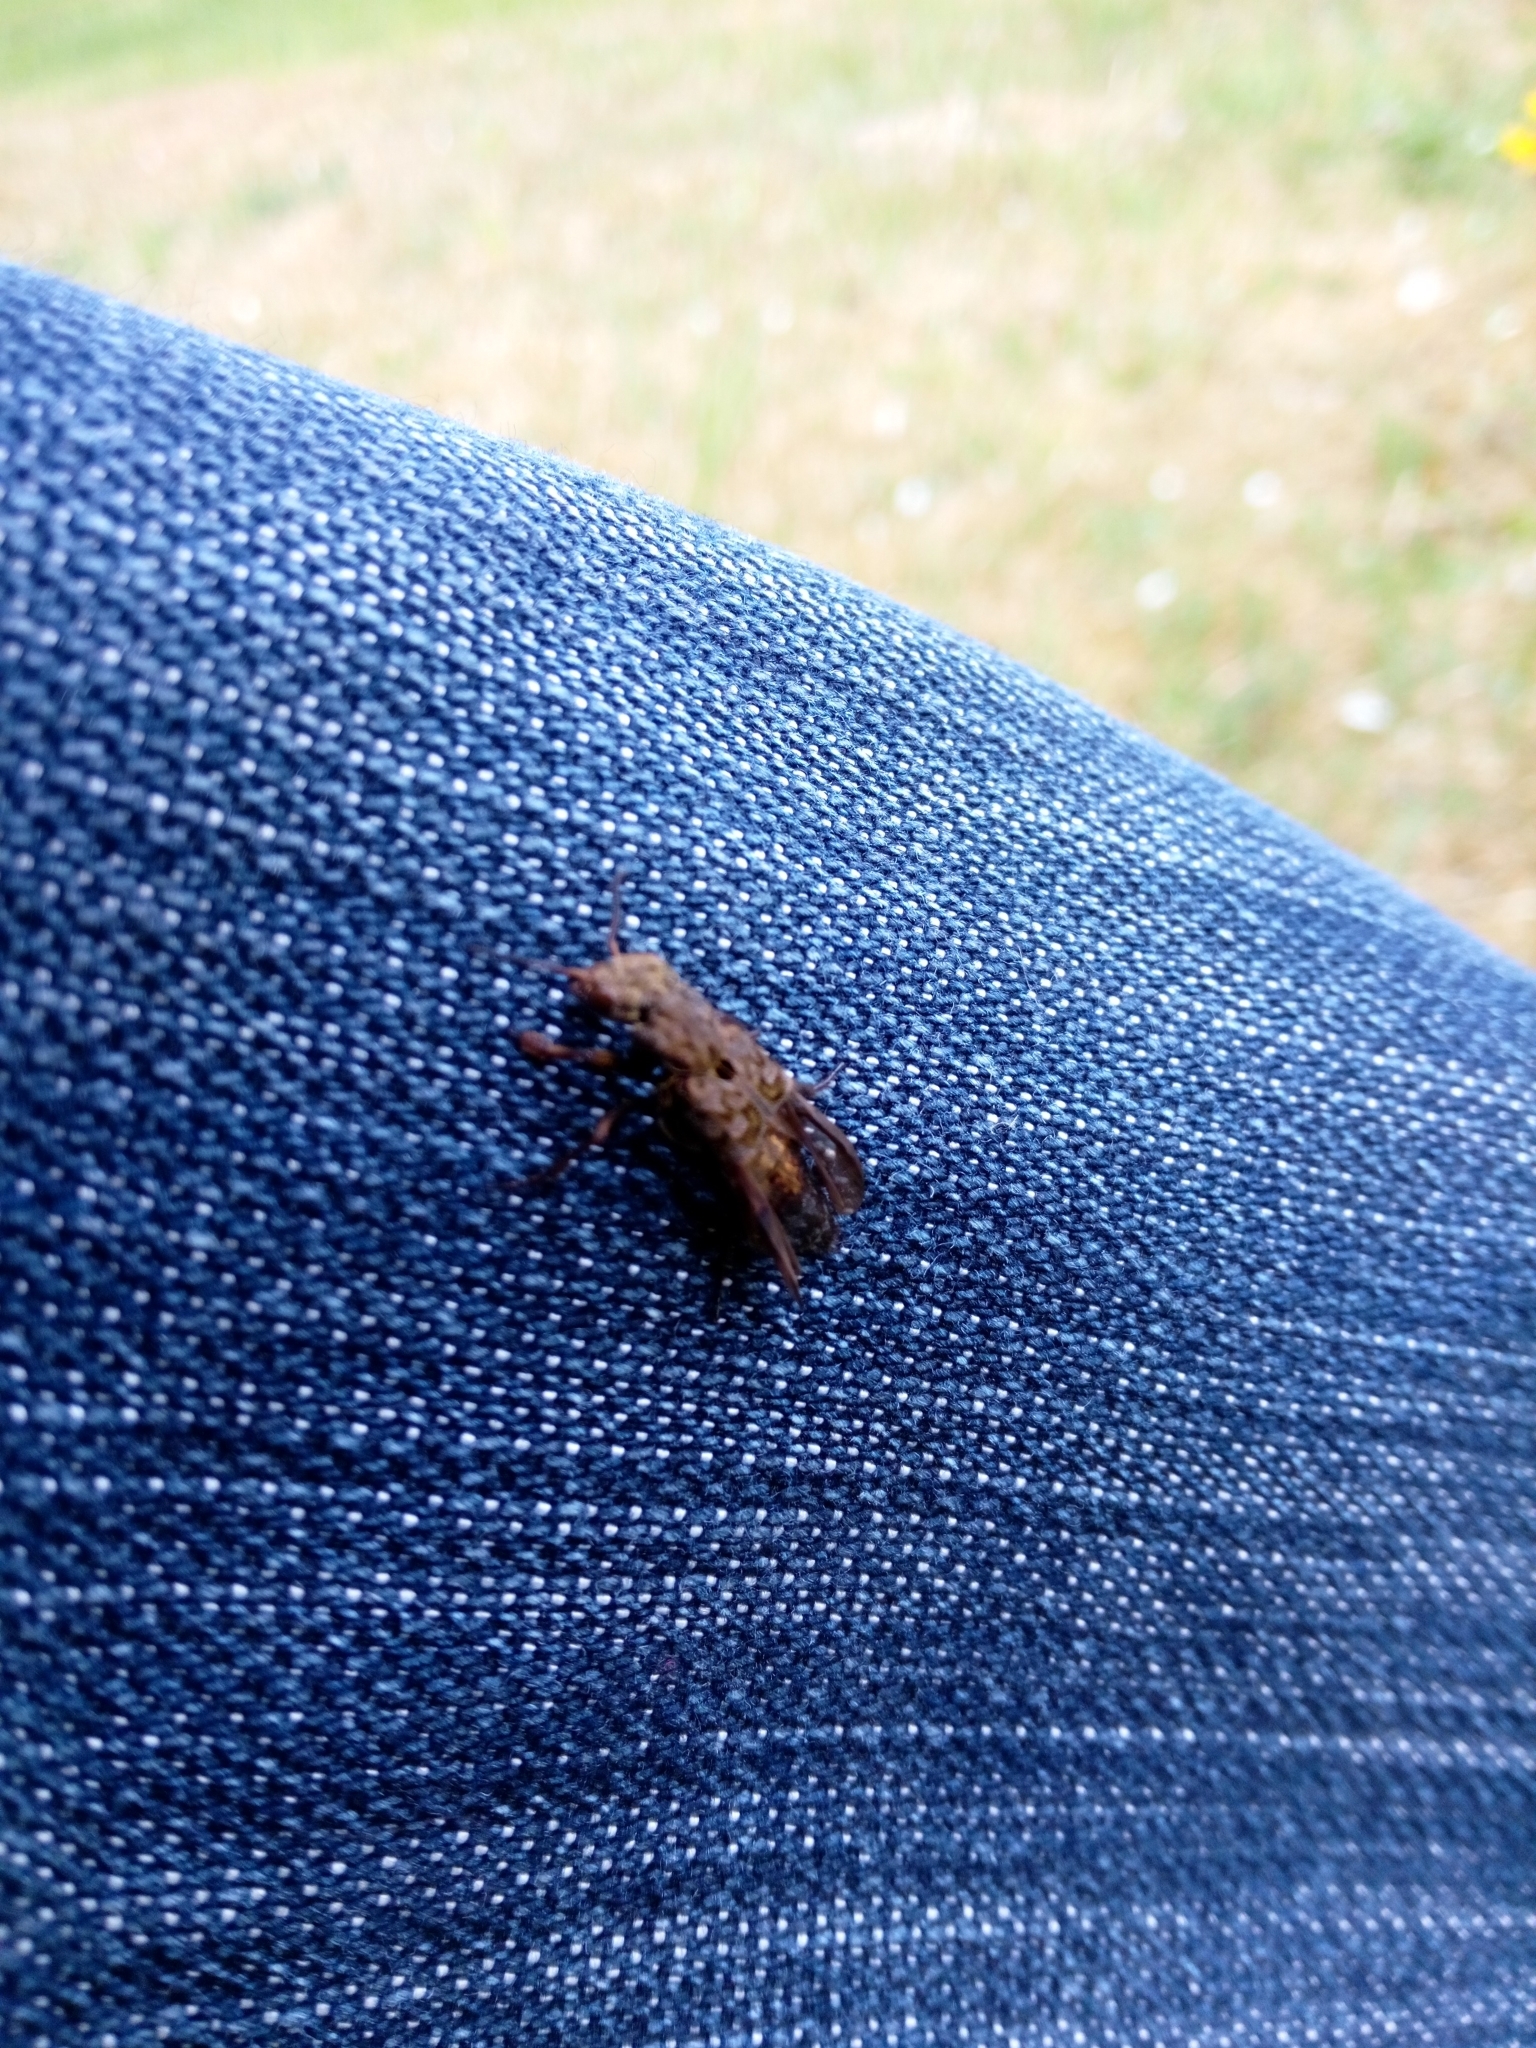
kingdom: Animalia
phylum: Arthropoda
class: Insecta
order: Coleoptera
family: Staphylinidae
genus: Ontholestes
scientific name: Ontholestes tessellatus
